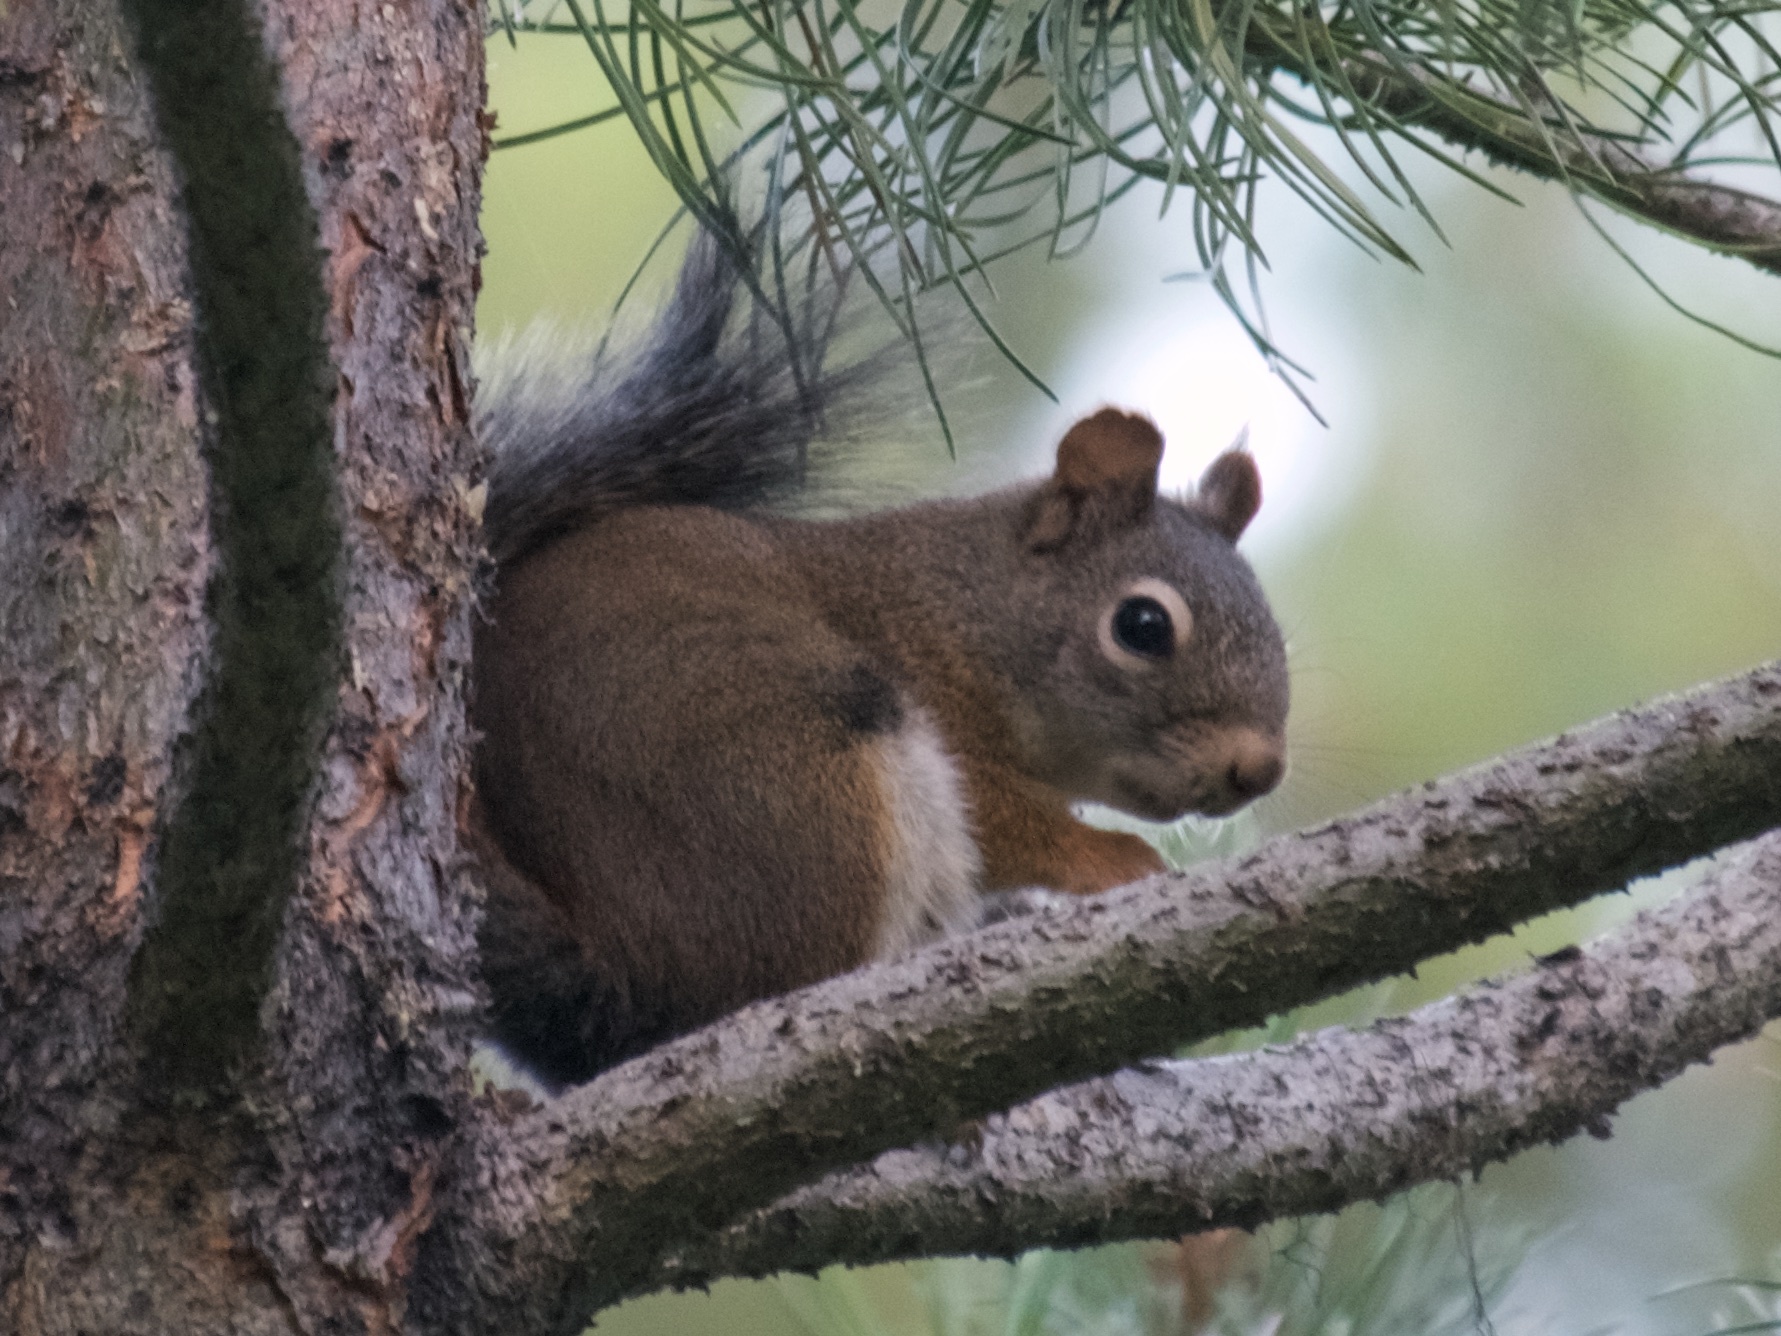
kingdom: Animalia
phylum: Chordata
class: Mammalia
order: Rodentia
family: Sciuridae
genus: Tamiasciurus
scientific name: Tamiasciurus hudsonicus
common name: Red squirrel
